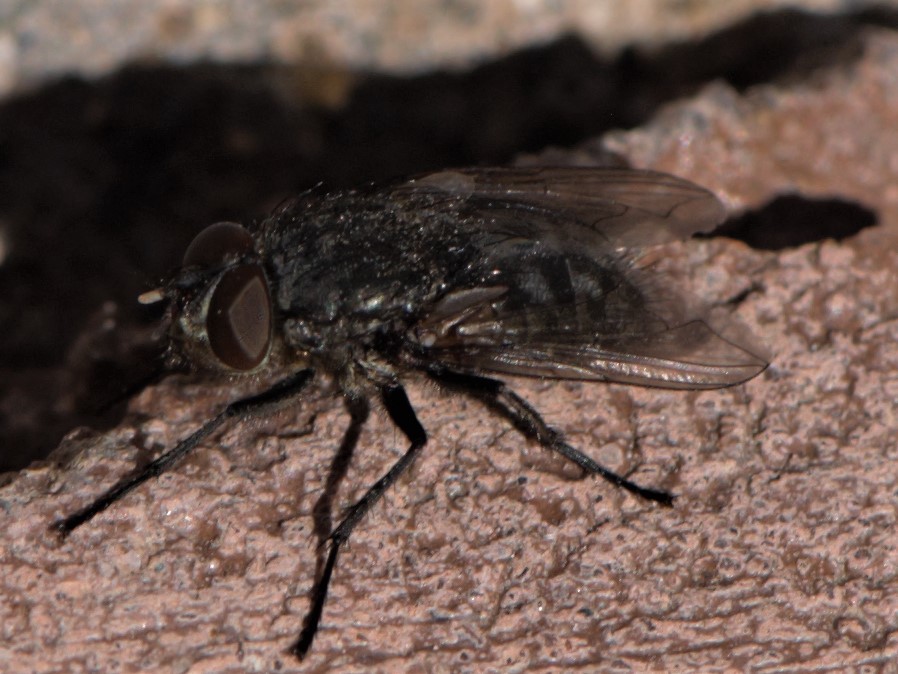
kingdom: Animalia
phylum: Arthropoda
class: Insecta
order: Diptera
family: Polleniidae
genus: Pollenia
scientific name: Pollenia
